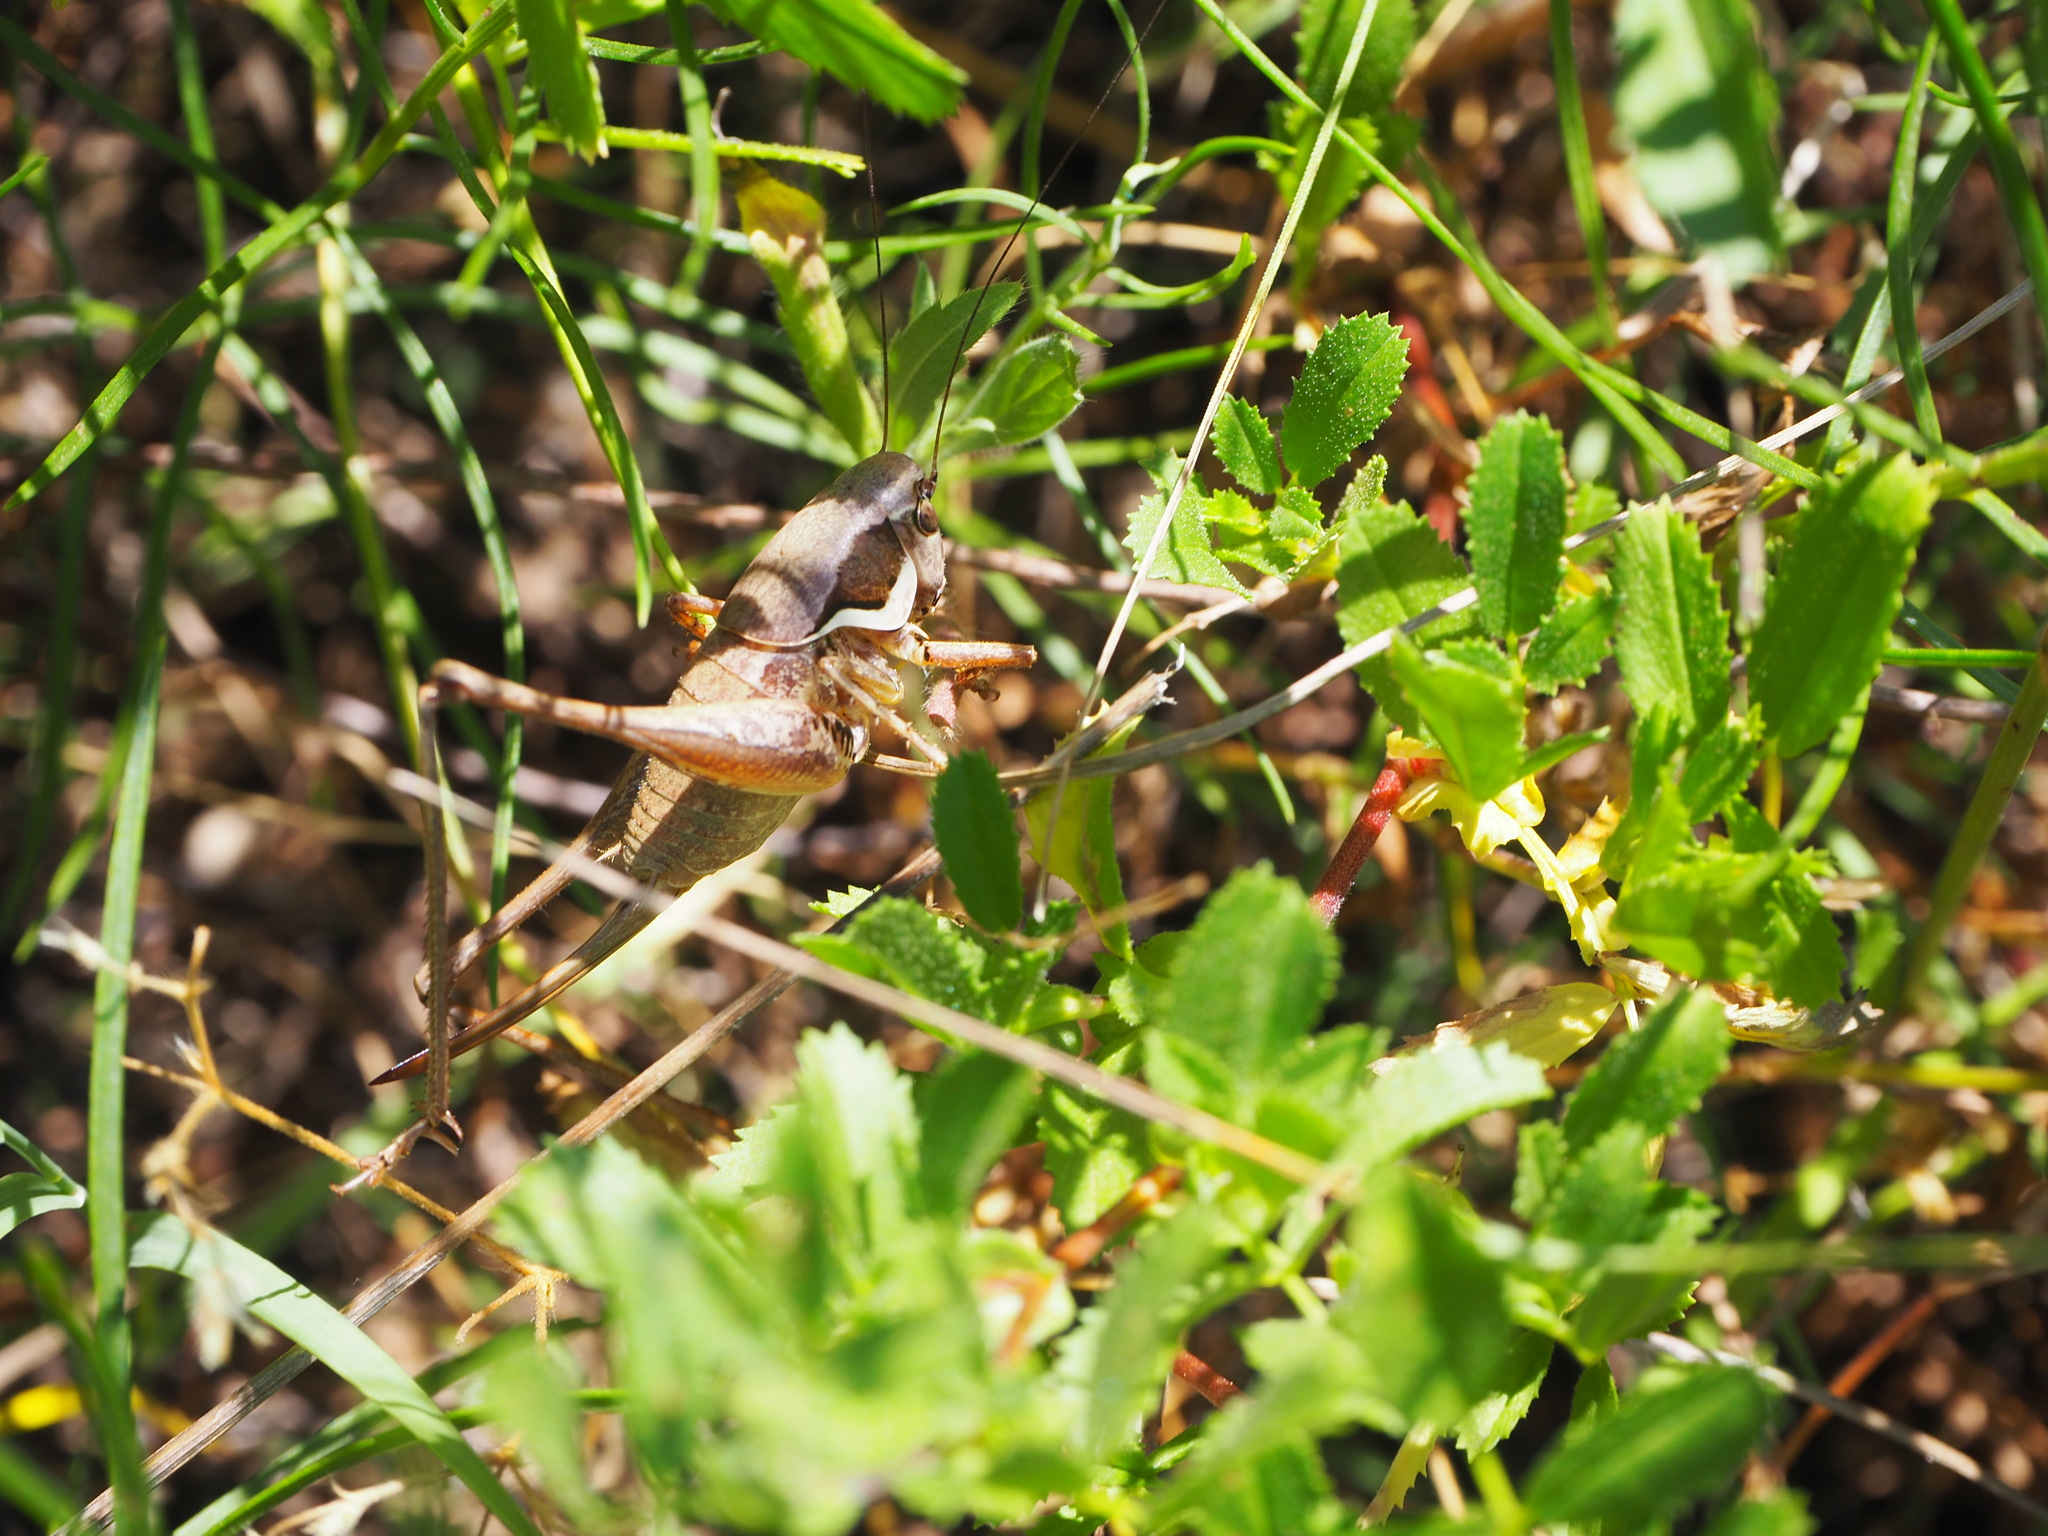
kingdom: Animalia
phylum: Arthropoda
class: Insecta
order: Orthoptera
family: Tettigoniidae
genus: Pholidoptera
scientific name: Pholidoptera femorata
